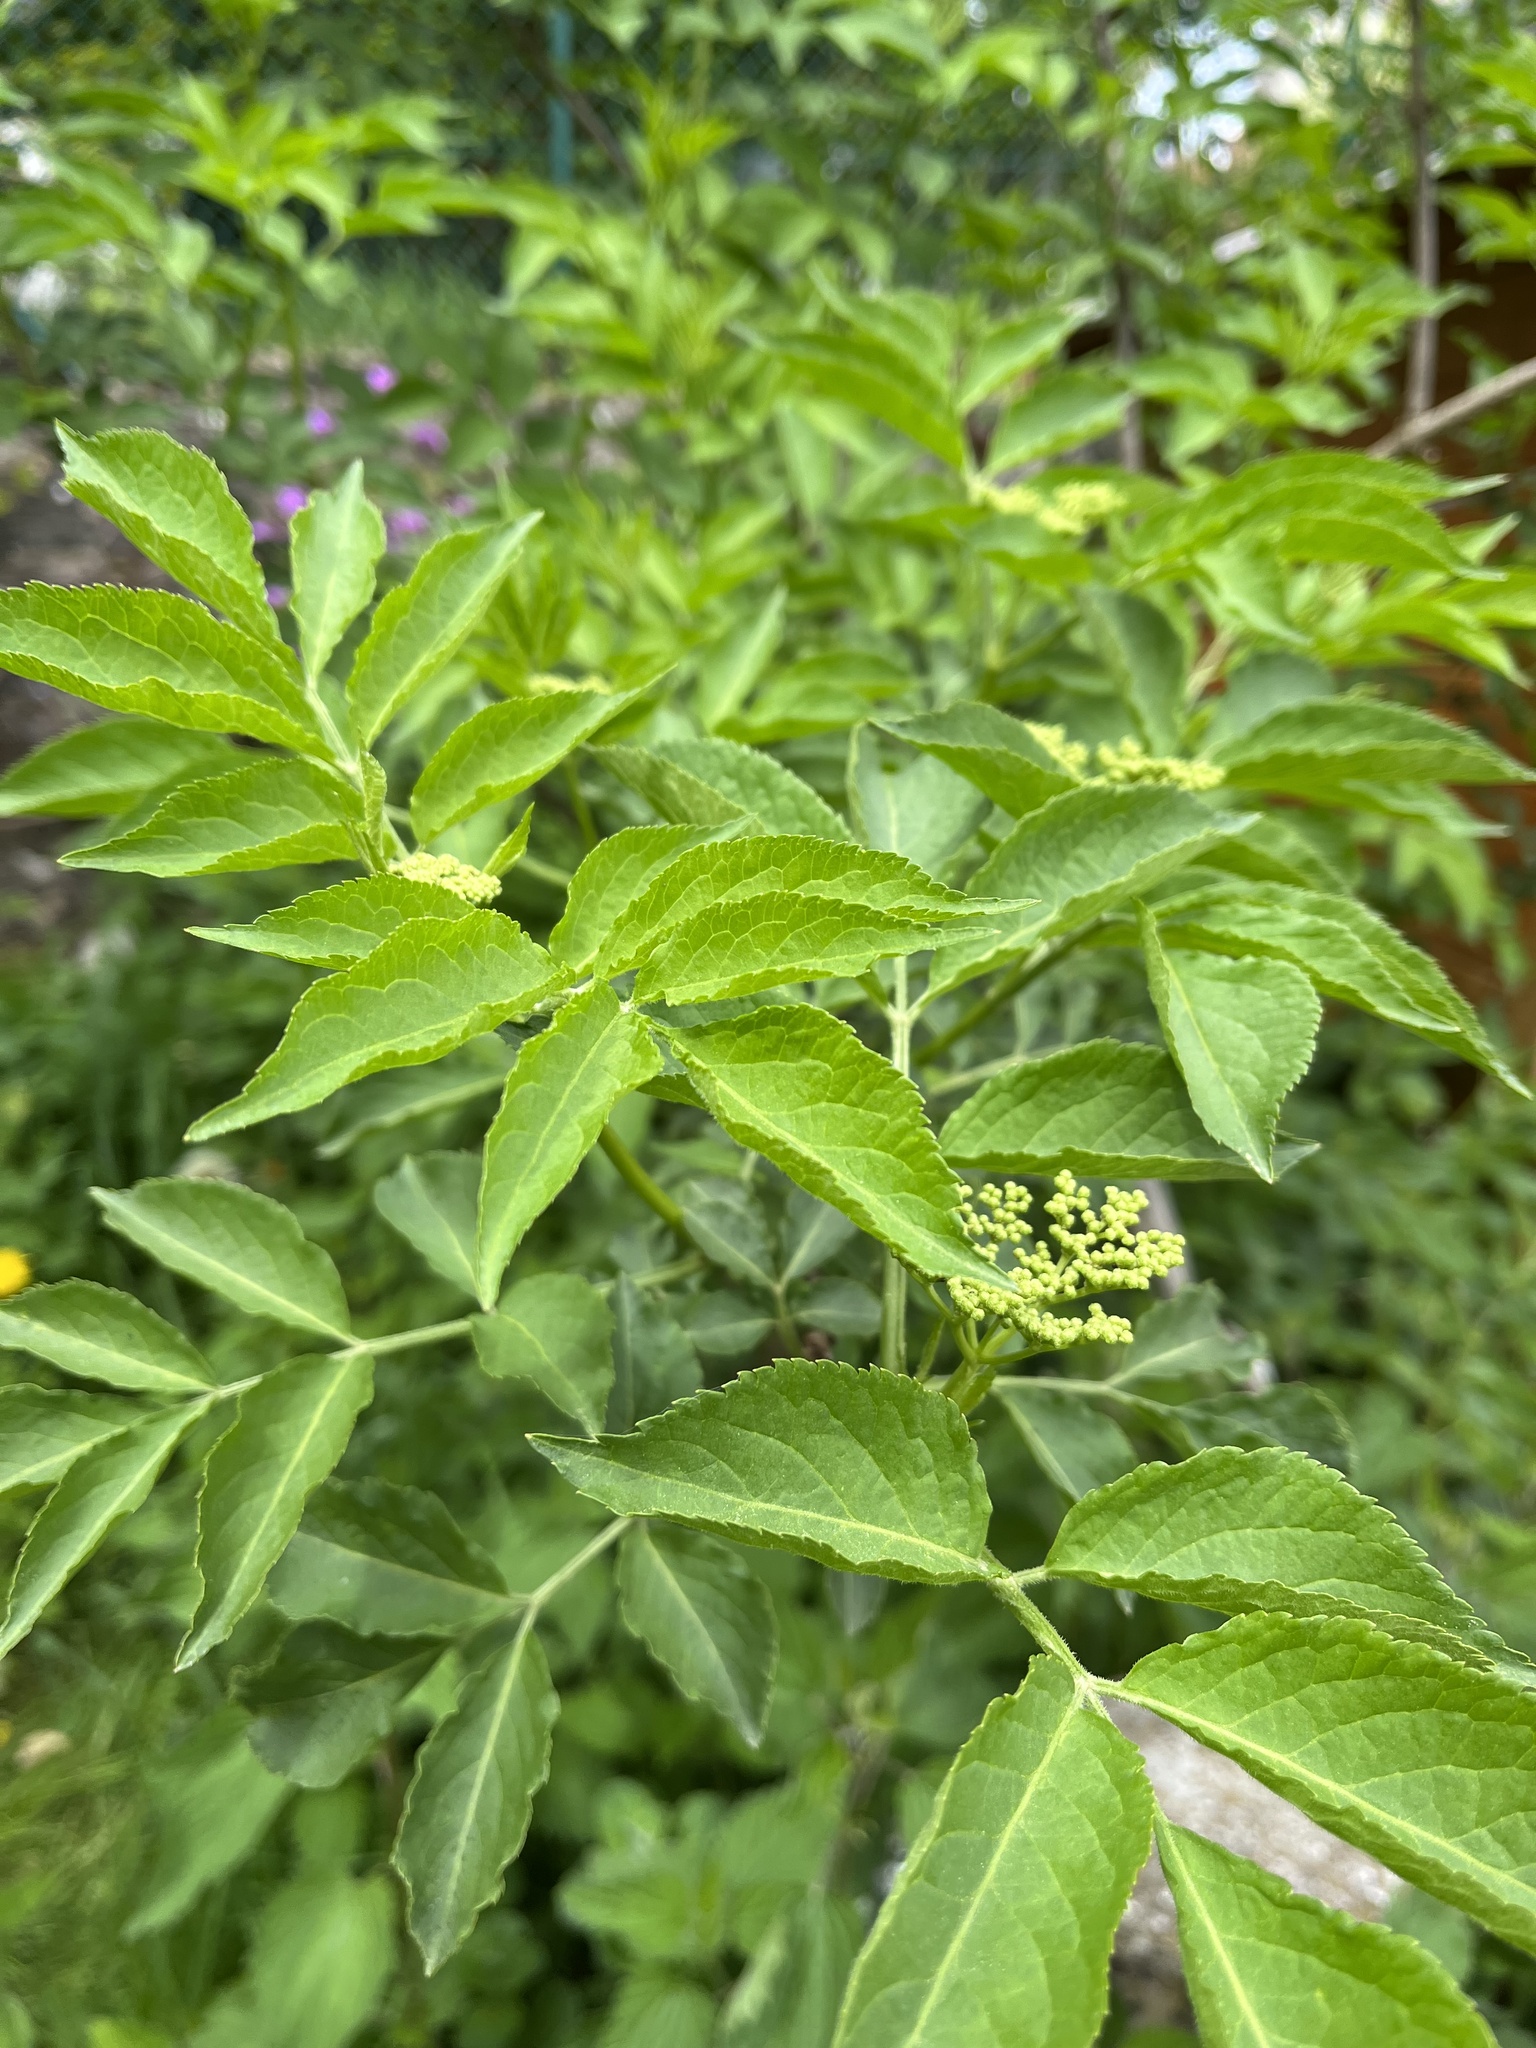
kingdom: Plantae
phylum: Tracheophyta
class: Magnoliopsida
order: Dipsacales
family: Viburnaceae
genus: Sambucus
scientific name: Sambucus nigra
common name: Elder
